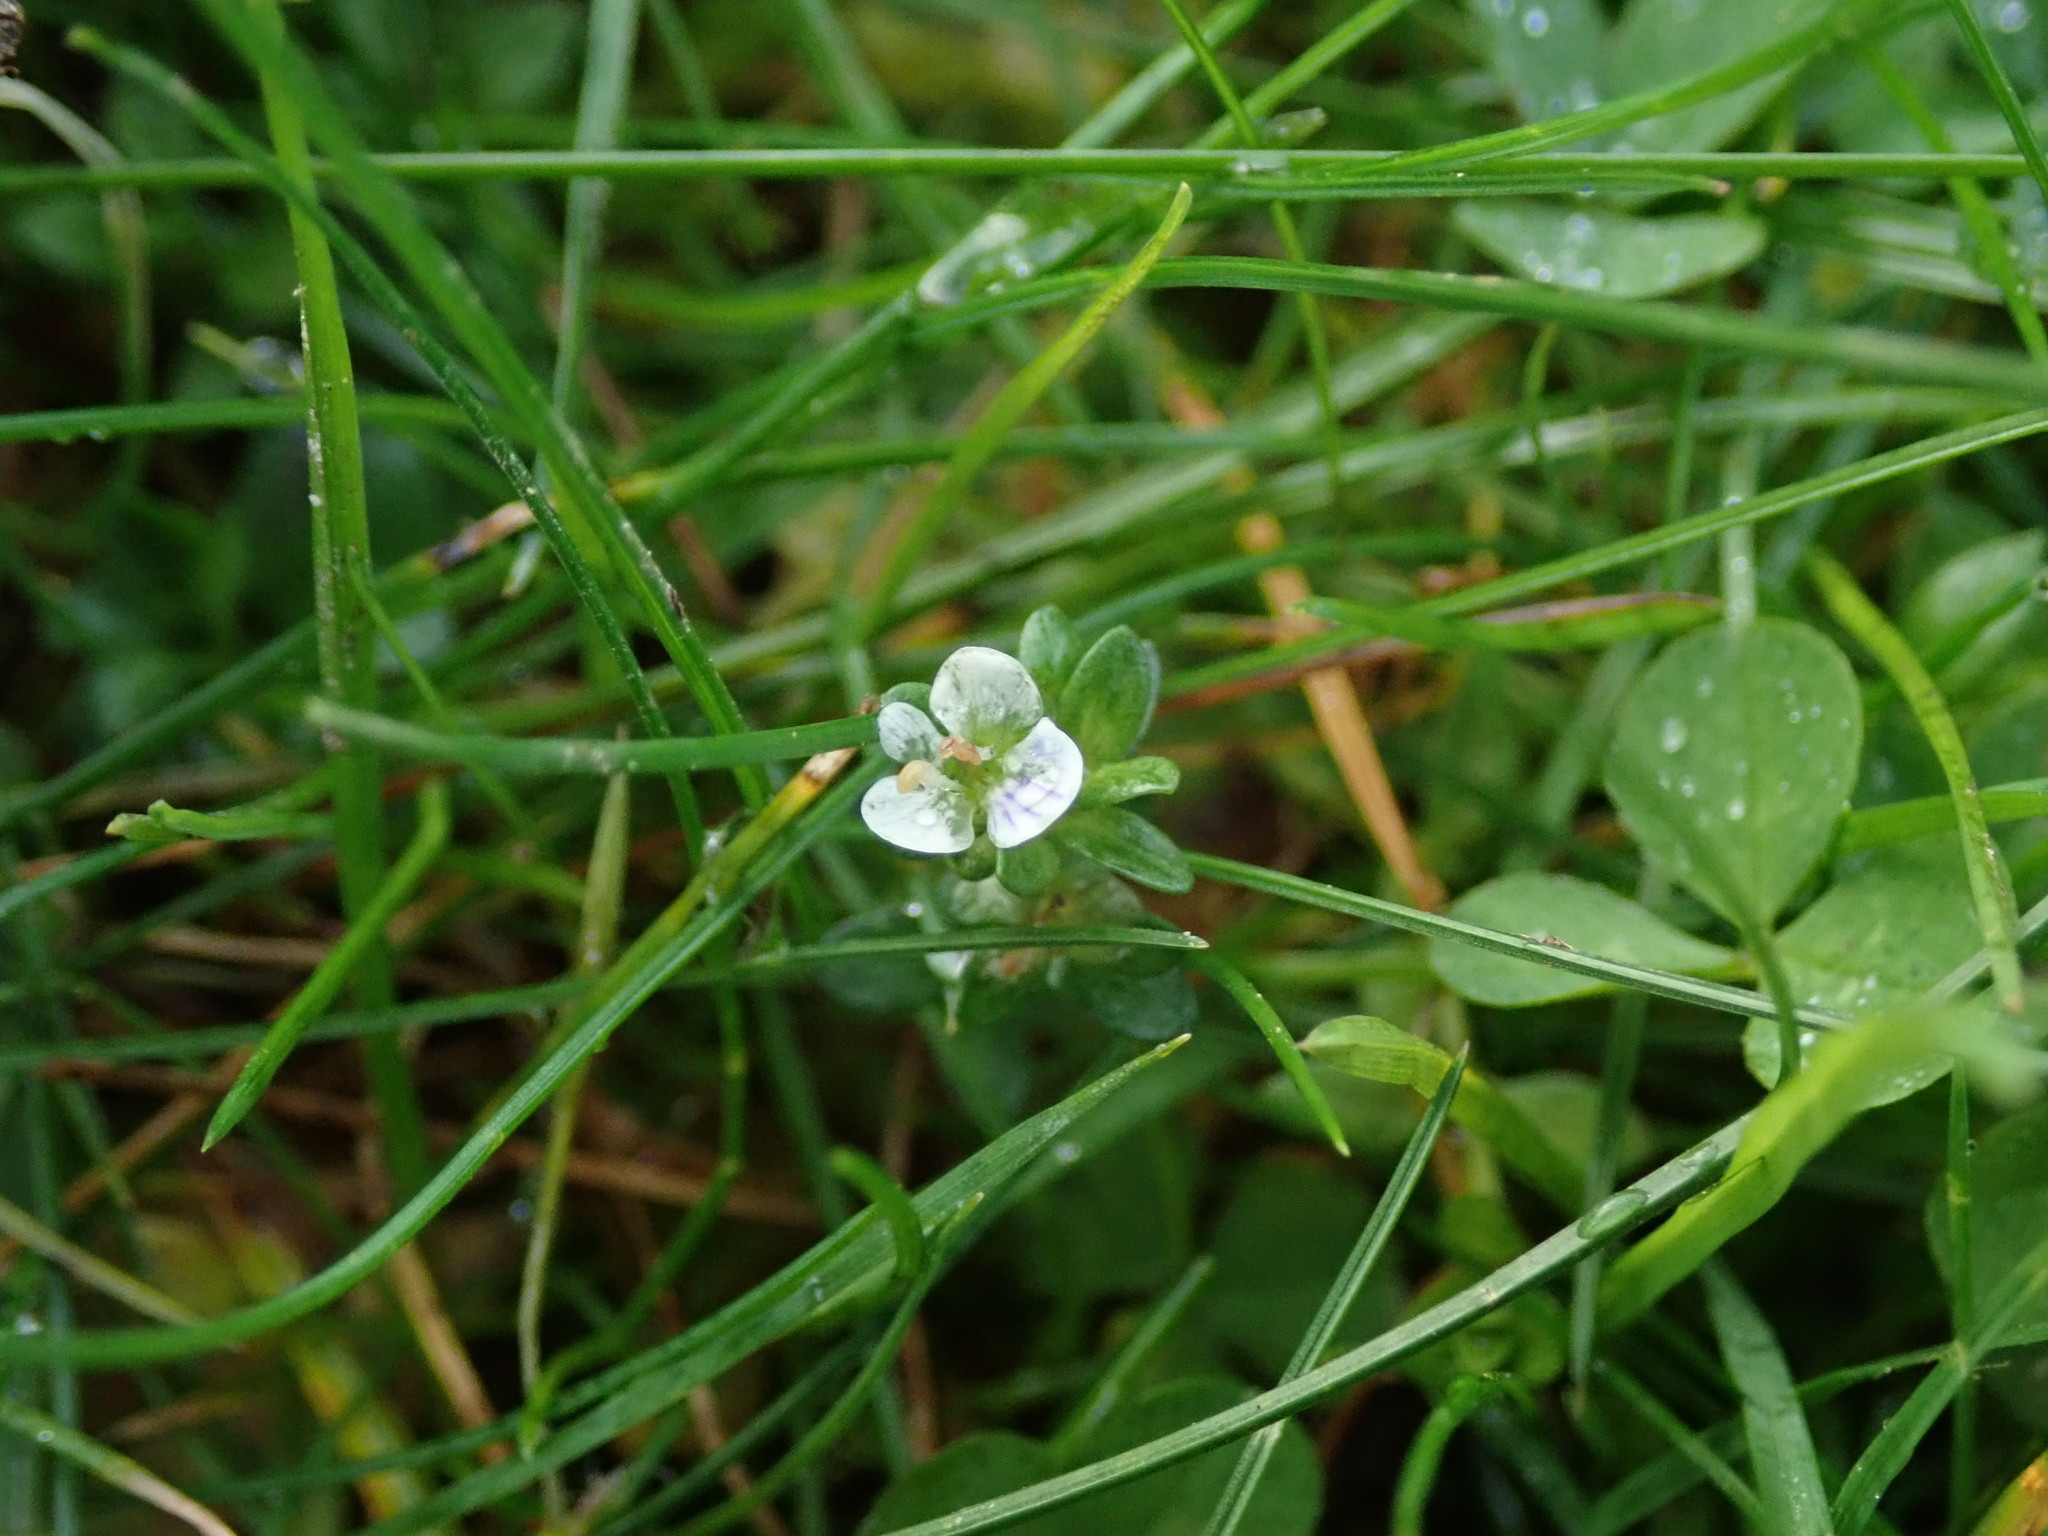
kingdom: Plantae
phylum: Tracheophyta
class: Magnoliopsida
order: Lamiales
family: Plantaginaceae
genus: Veronica
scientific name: Veronica serpyllifolia
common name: Thyme-leaved speedwell
